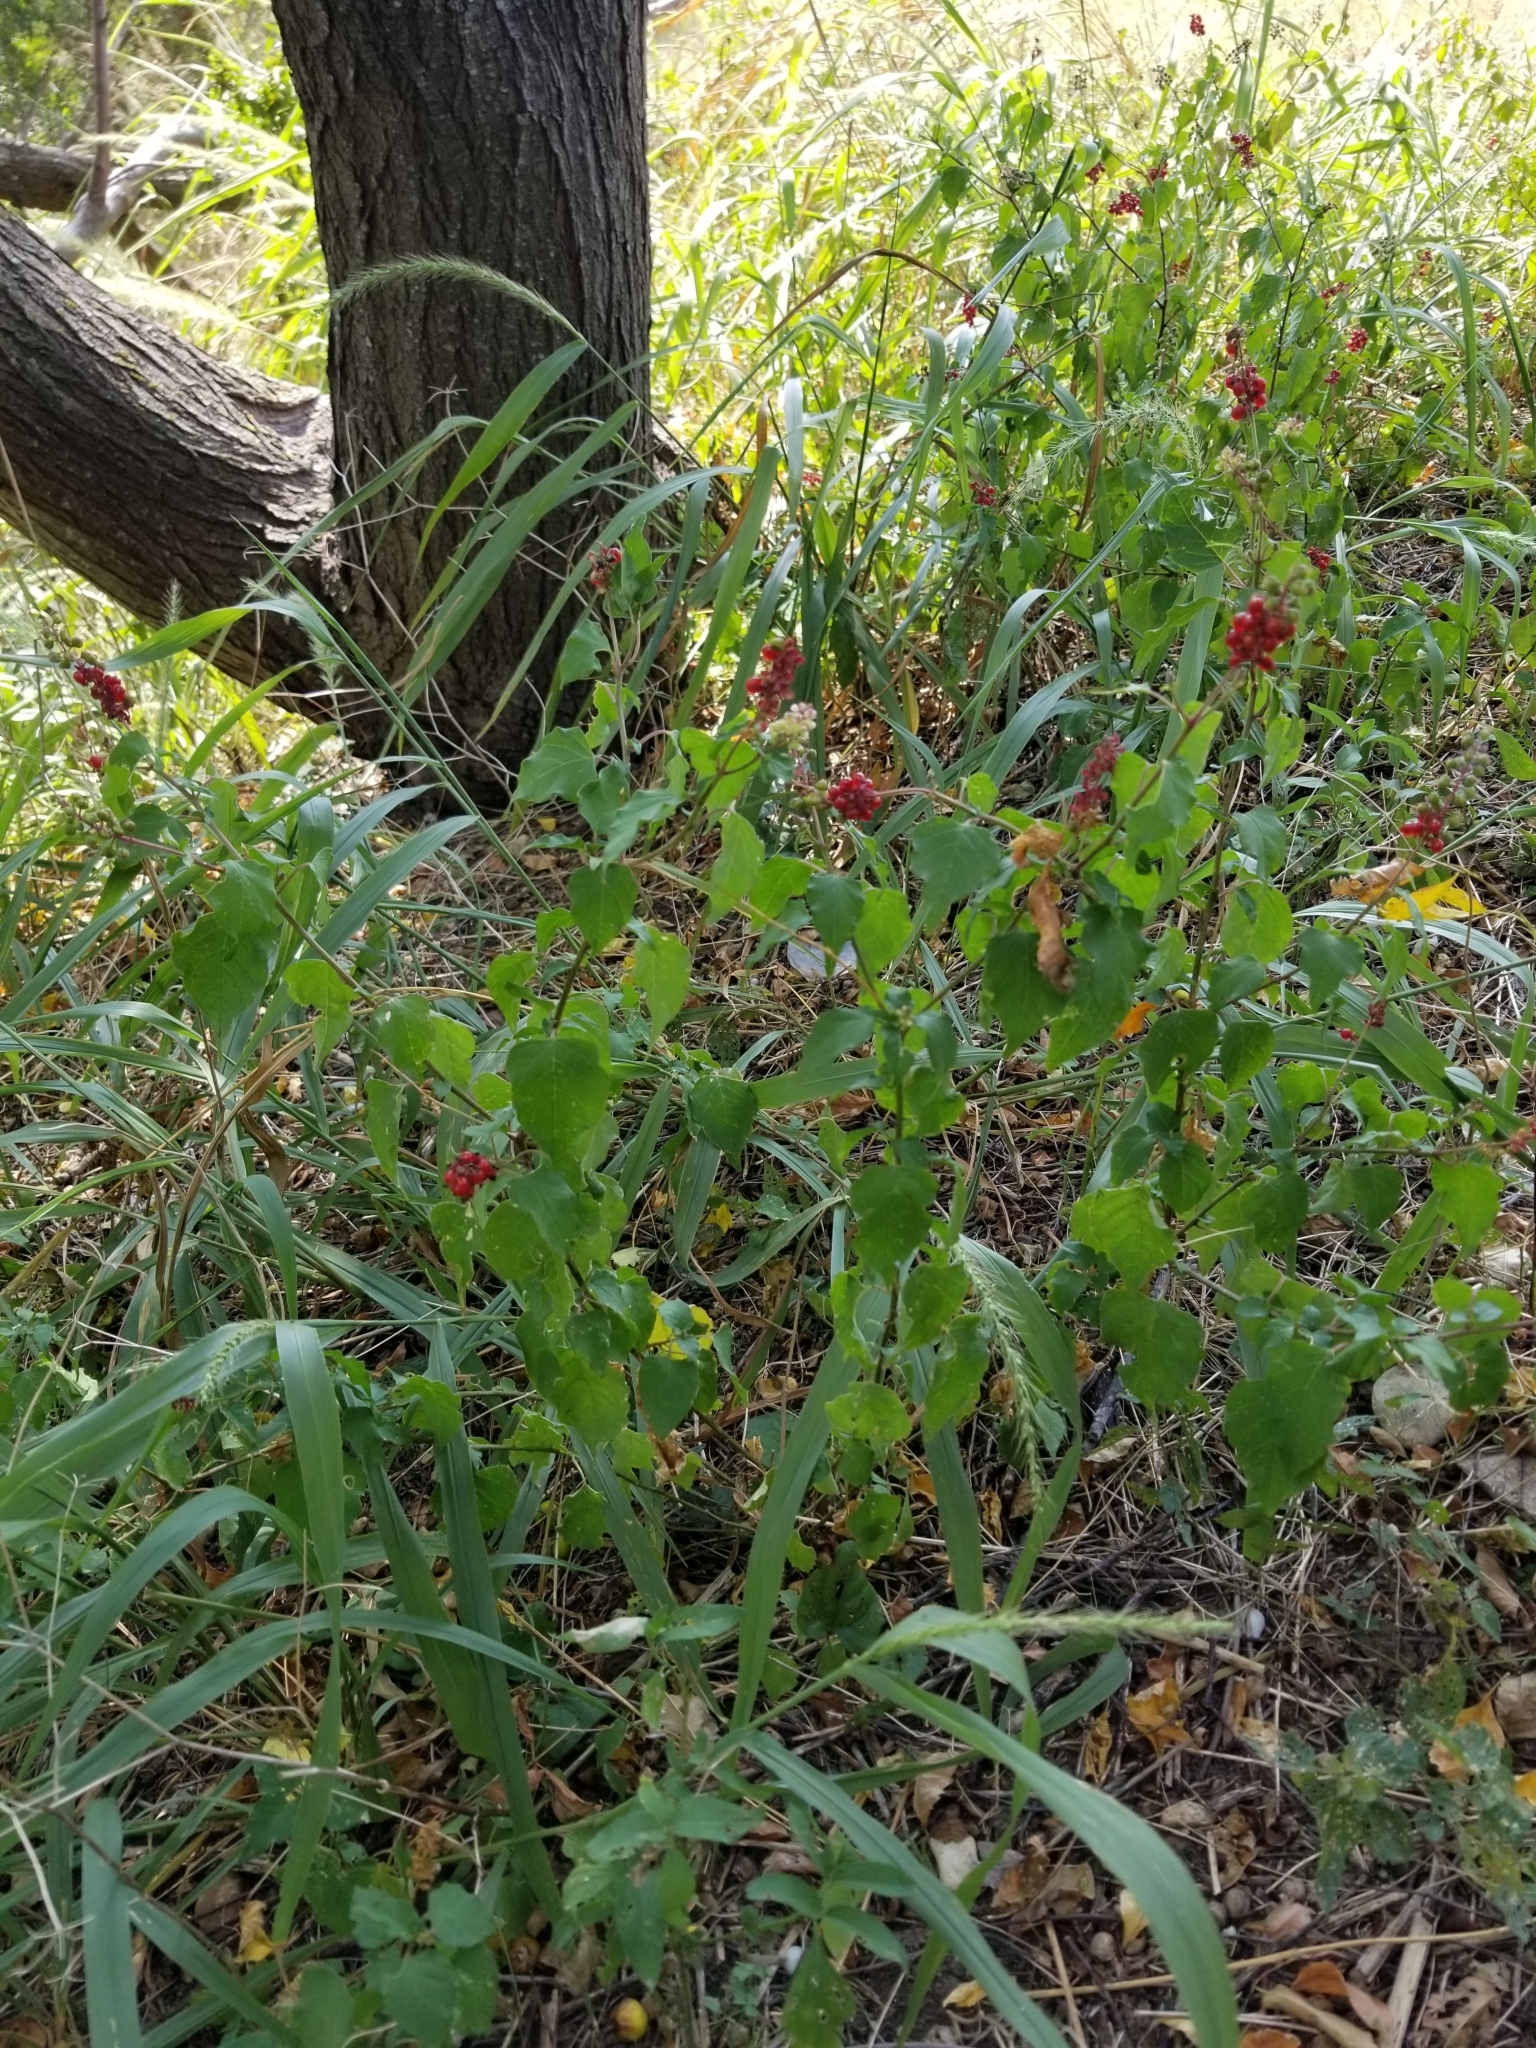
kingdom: Plantae
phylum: Tracheophyta
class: Magnoliopsida
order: Caryophyllales
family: Phytolaccaceae
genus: Rivina
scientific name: Rivina humilis
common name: Rougeplant
